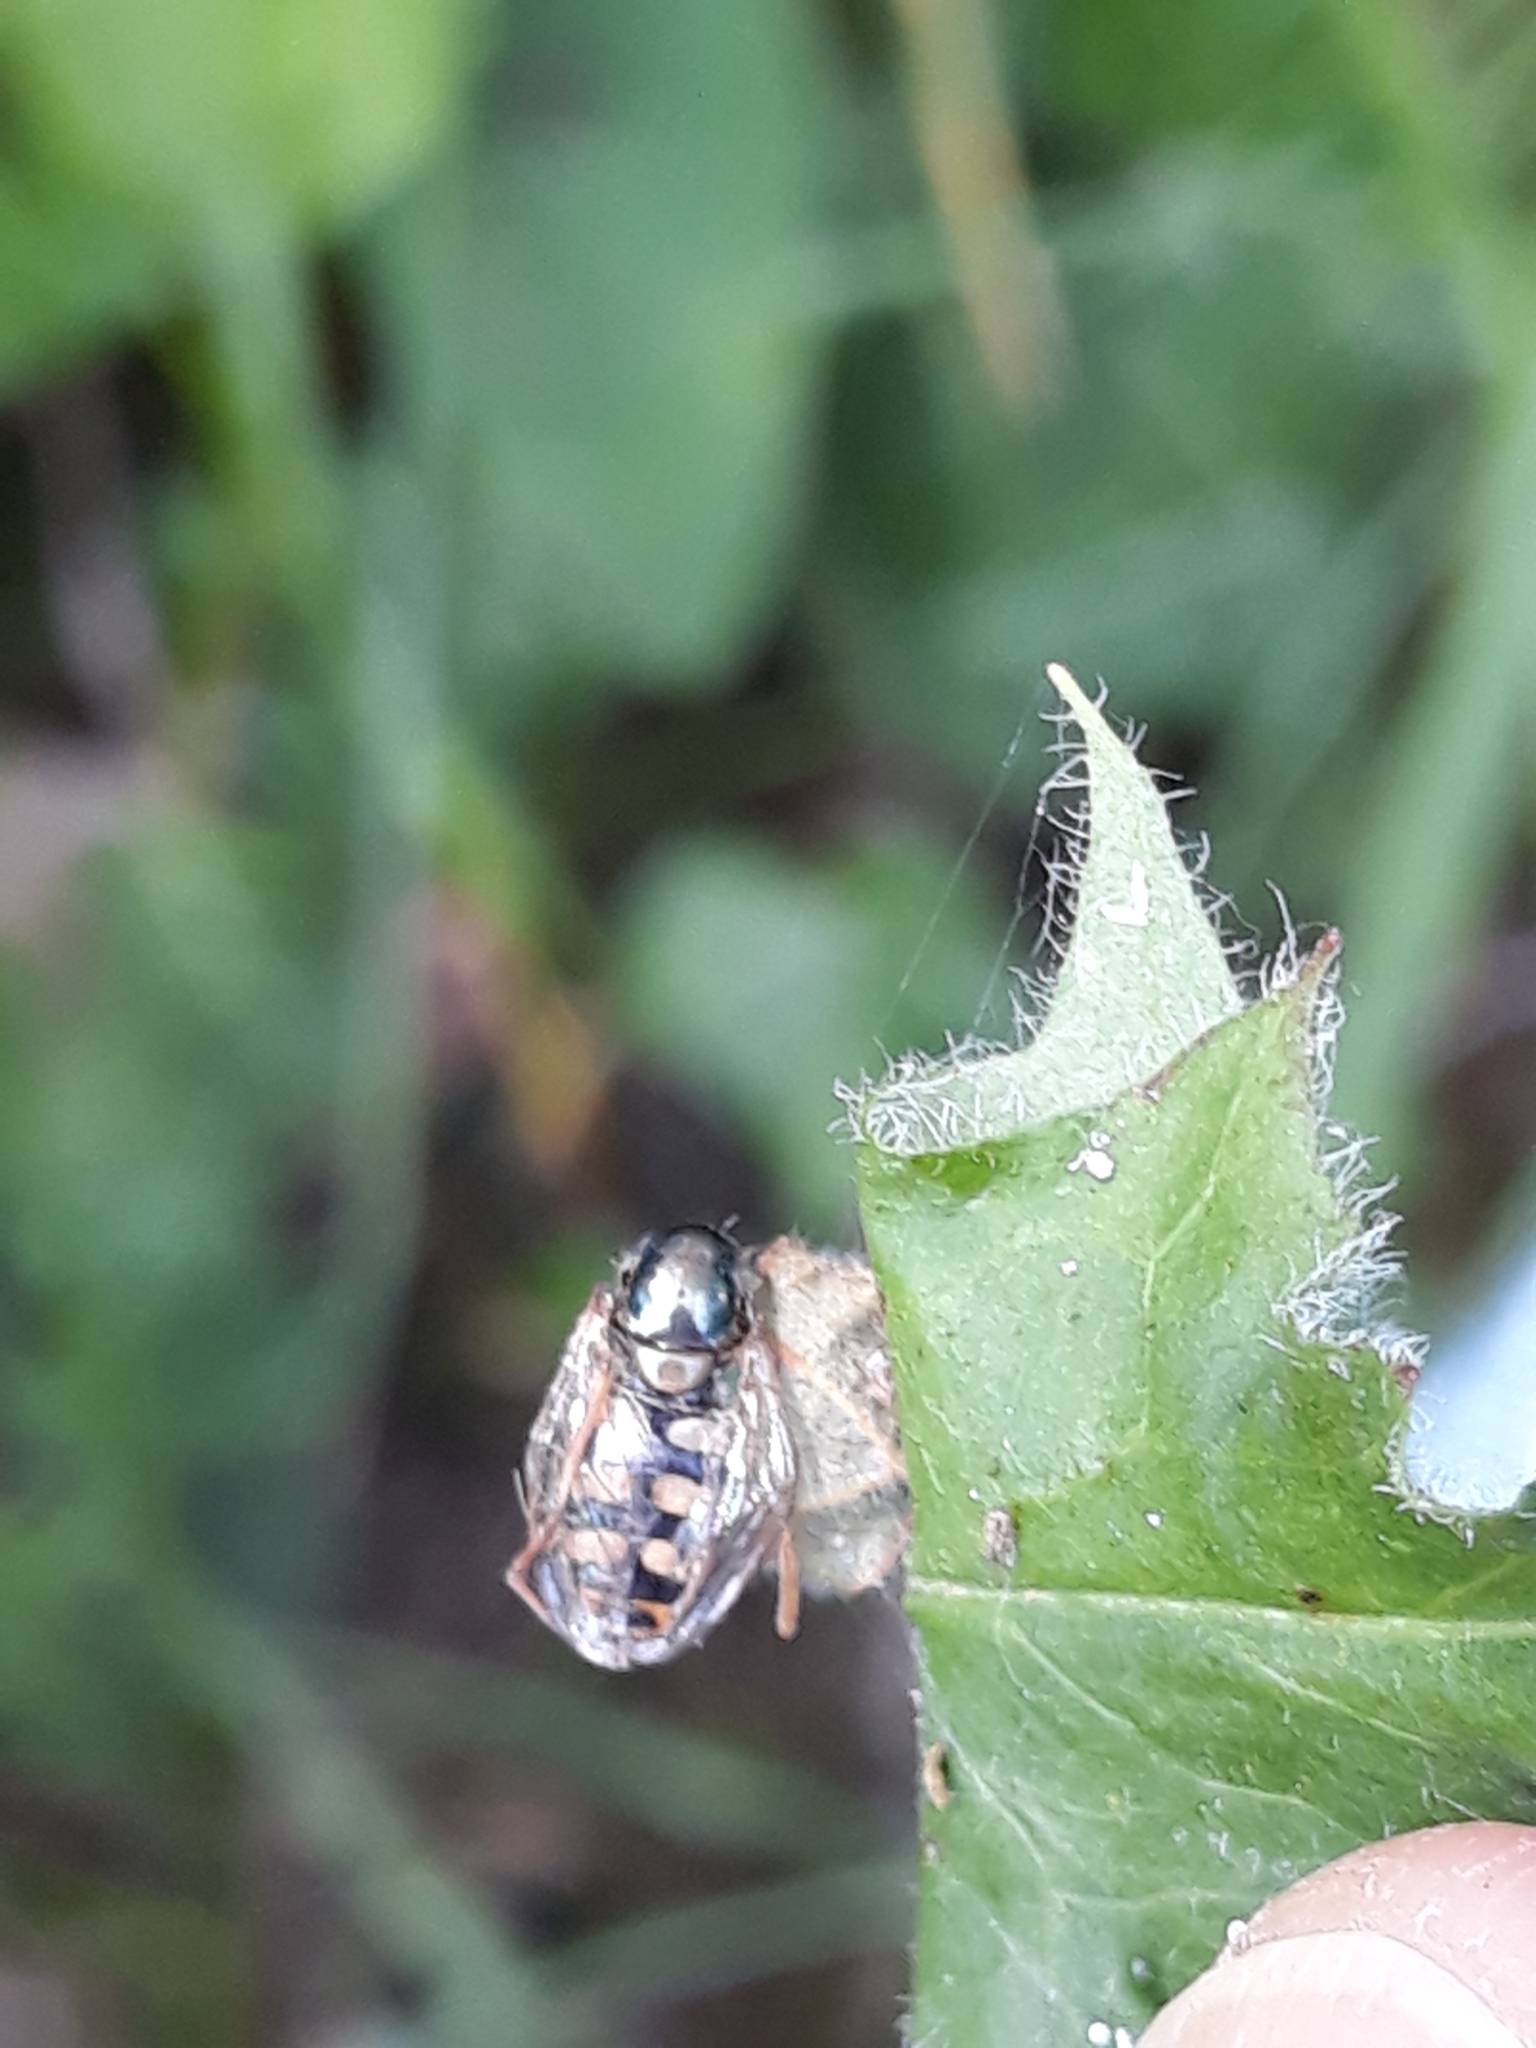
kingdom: Animalia
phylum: Arthropoda
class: Insecta
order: Diptera
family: Syrphidae
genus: Eupeodes
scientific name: Eupeodes corollae
